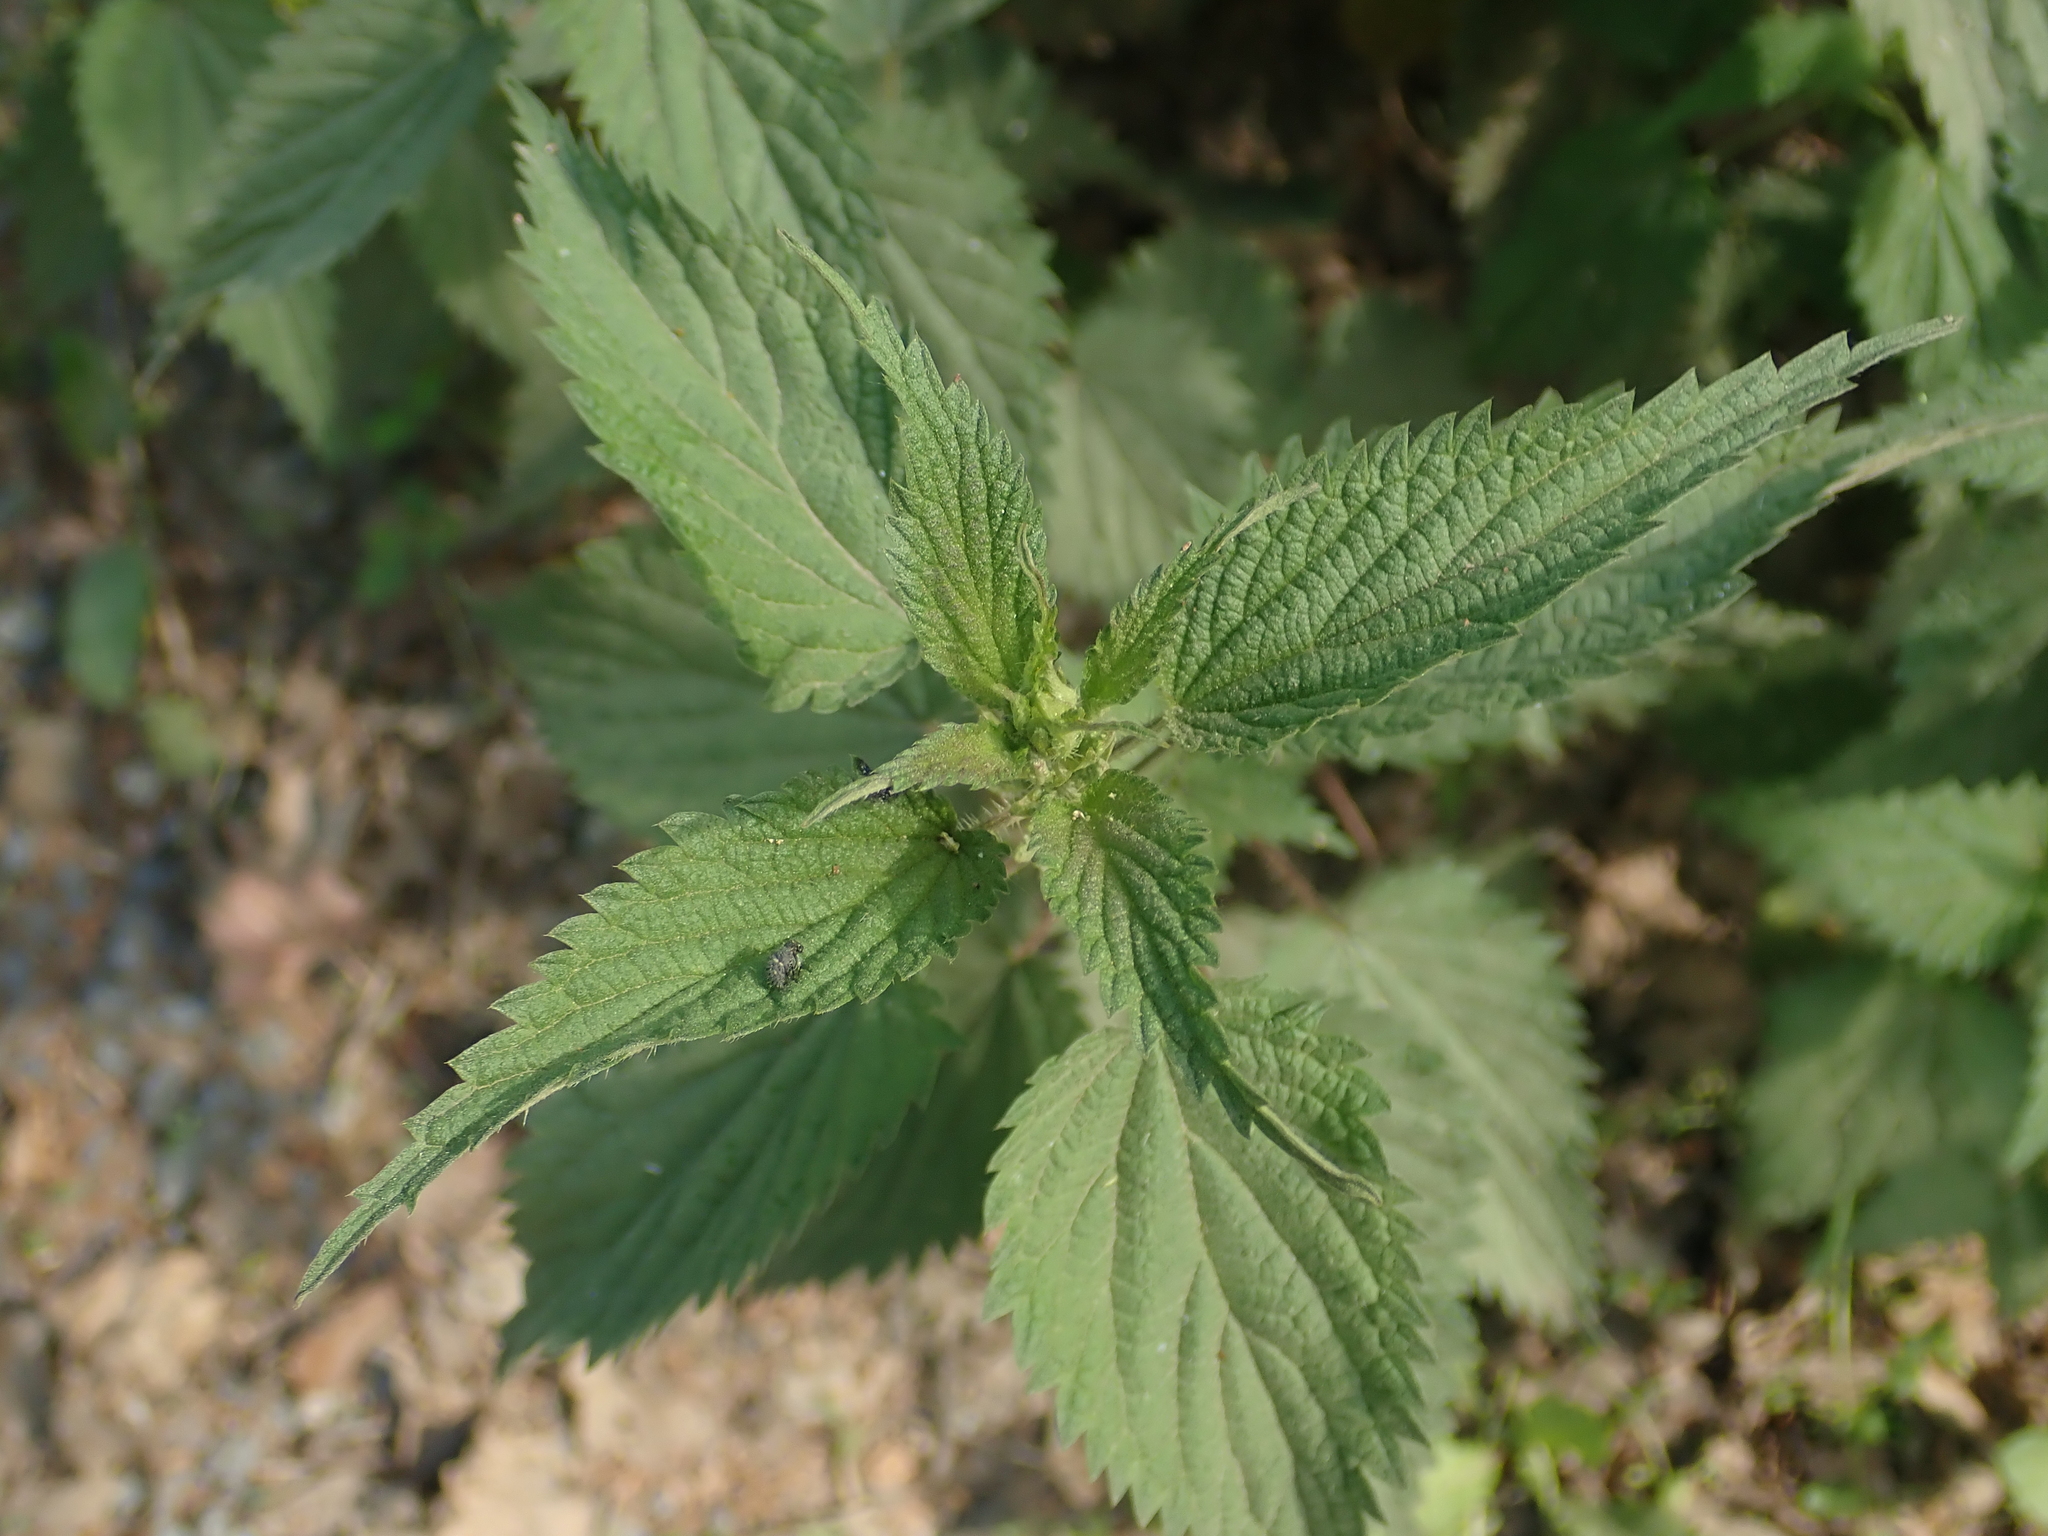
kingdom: Plantae
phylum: Tracheophyta
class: Magnoliopsida
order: Rosales
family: Urticaceae
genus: Urtica
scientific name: Urtica dioica
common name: Common nettle
